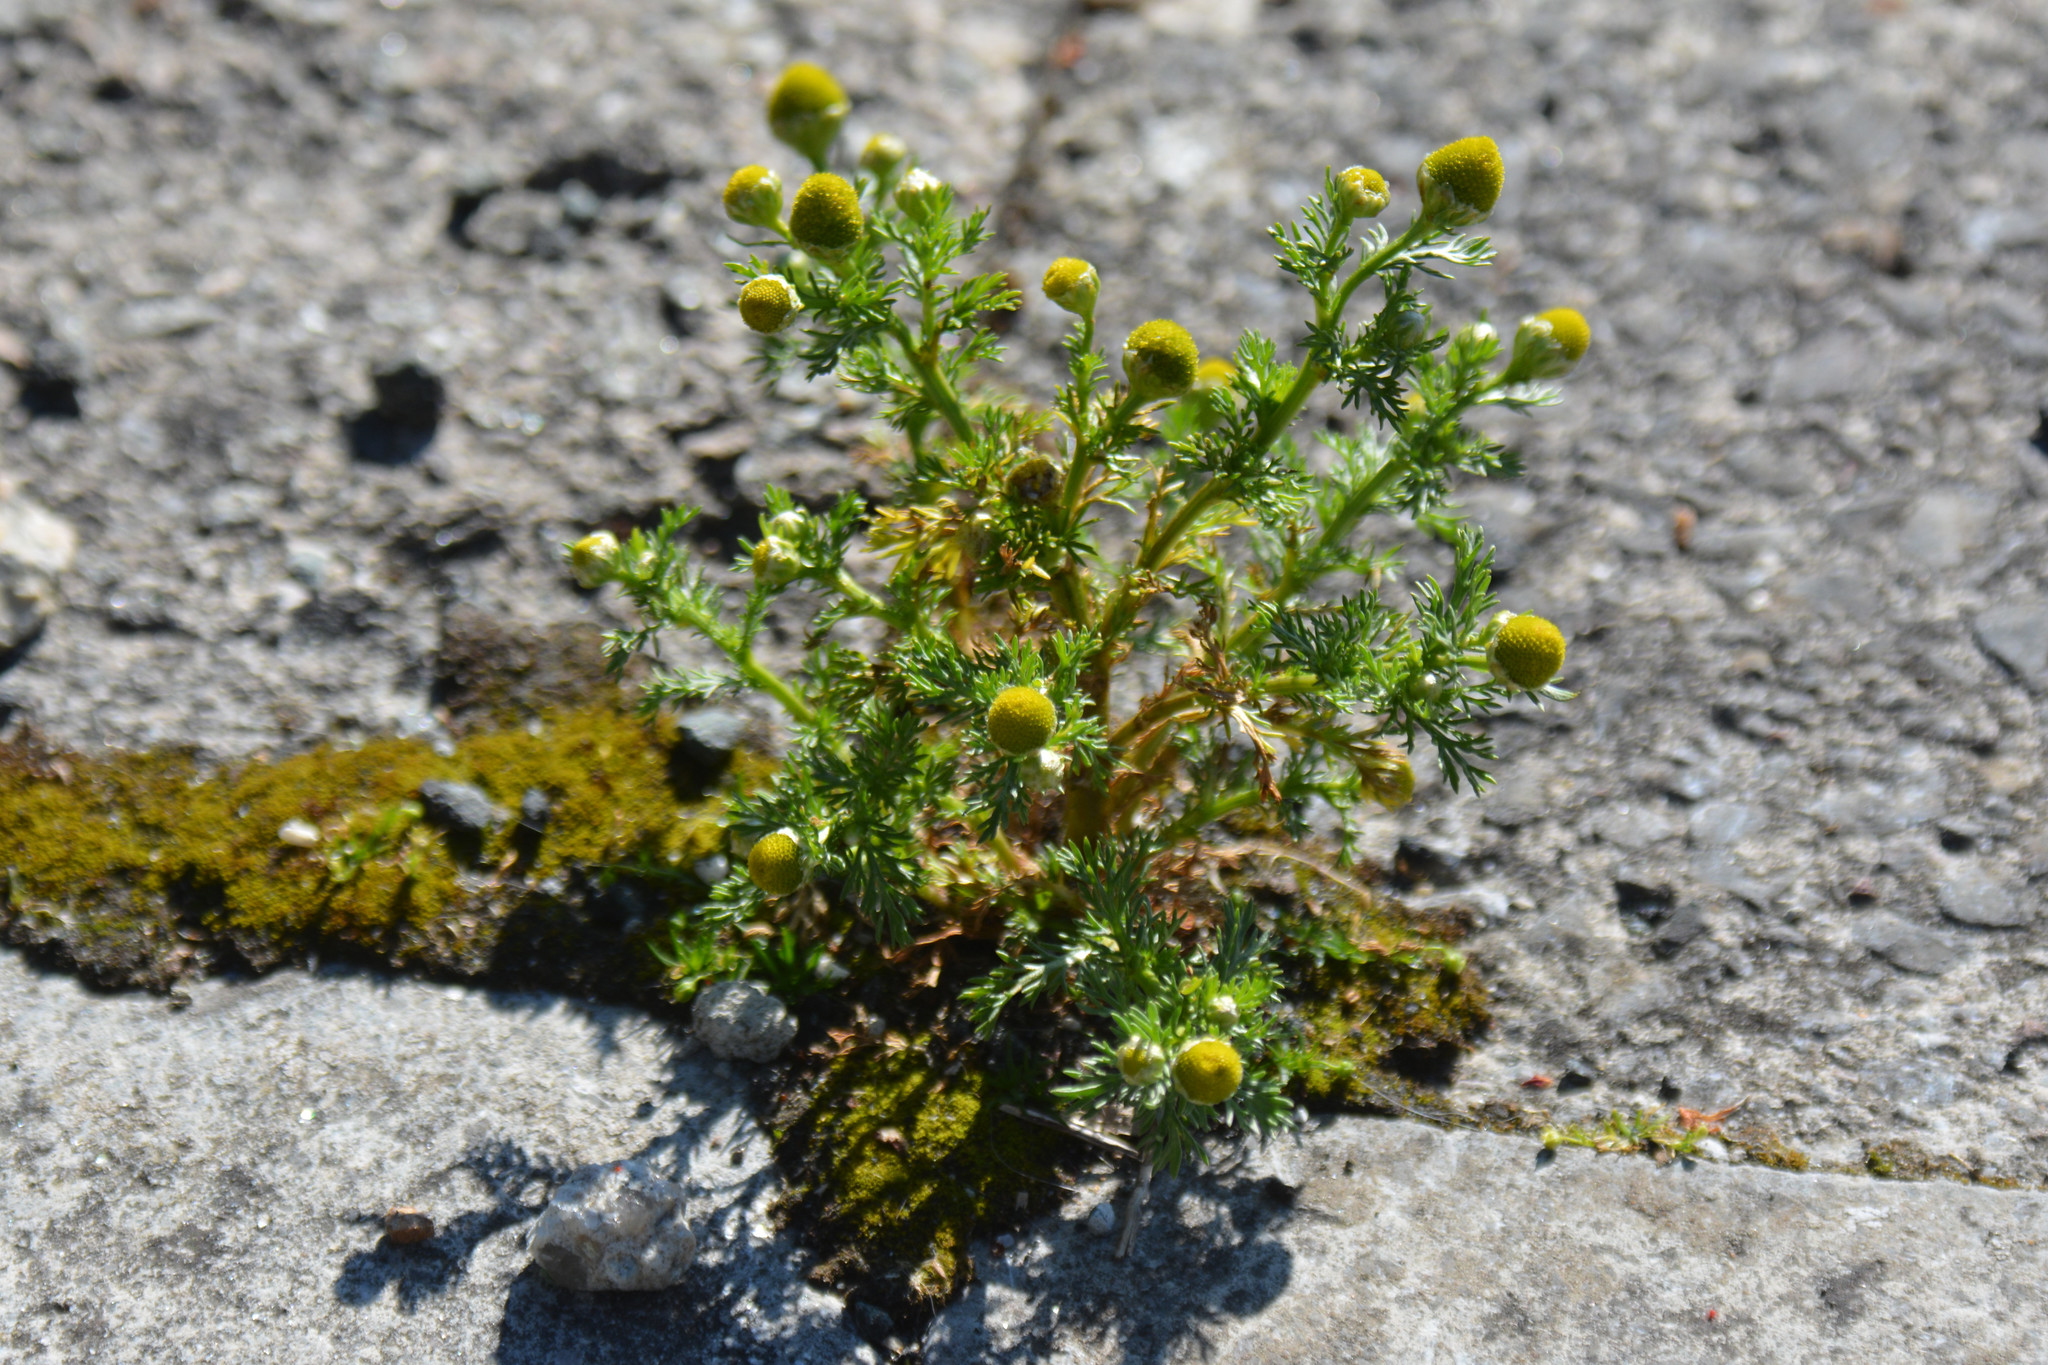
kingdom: Plantae
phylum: Tracheophyta
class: Magnoliopsida
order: Asterales
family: Asteraceae
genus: Matricaria
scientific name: Matricaria discoidea
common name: Disc mayweed
